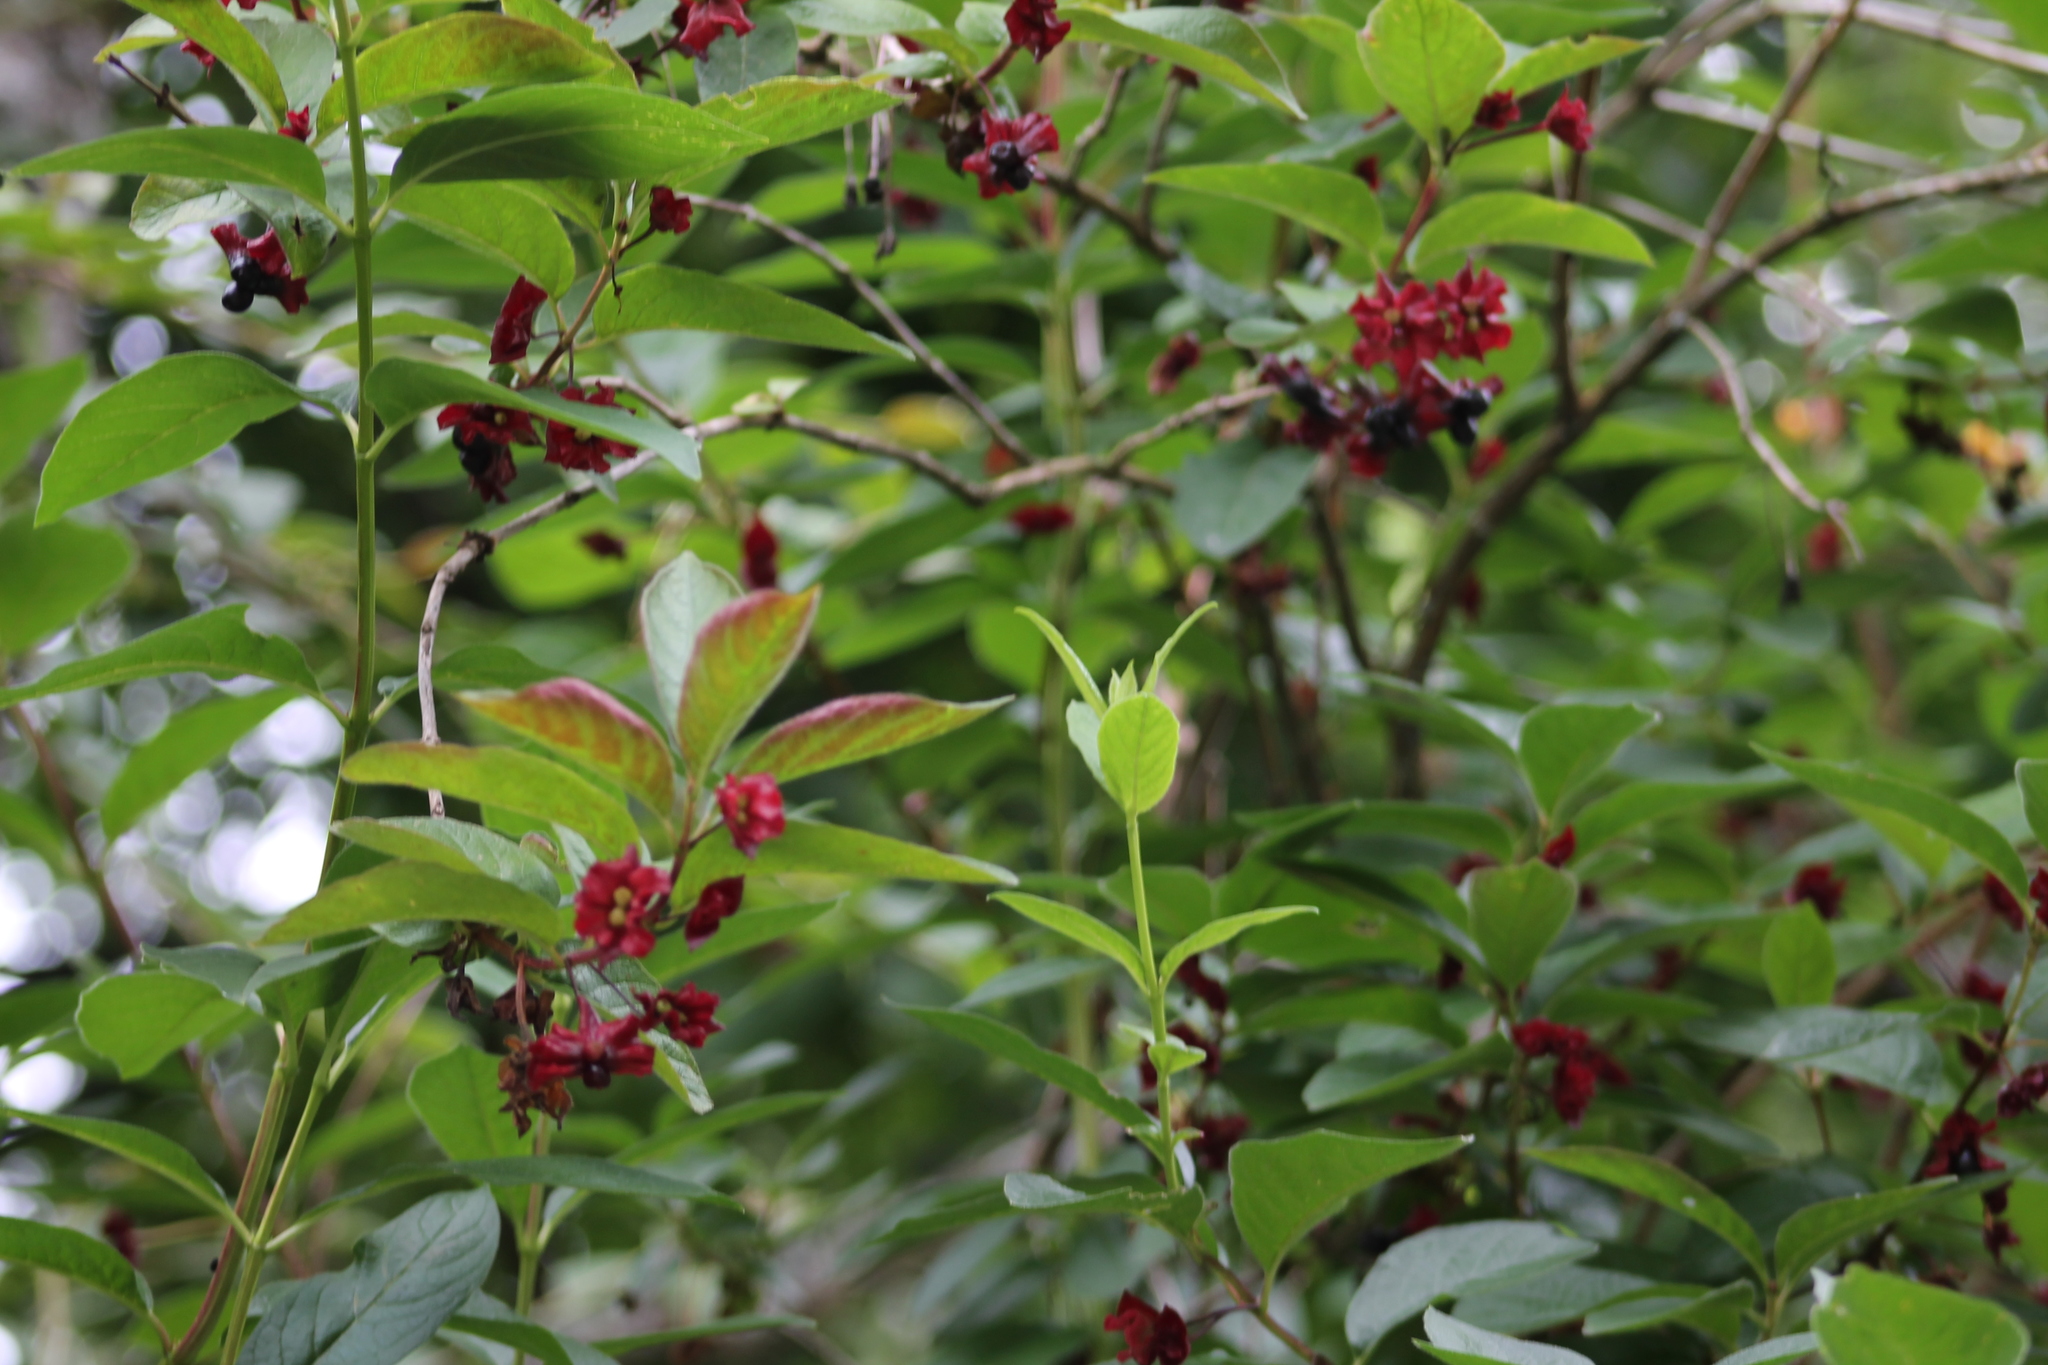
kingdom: Plantae
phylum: Tracheophyta
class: Magnoliopsida
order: Dipsacales
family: Caprifoliaceae
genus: Lonicera
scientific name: Lonicera involucrata
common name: Californian honeysuckle
